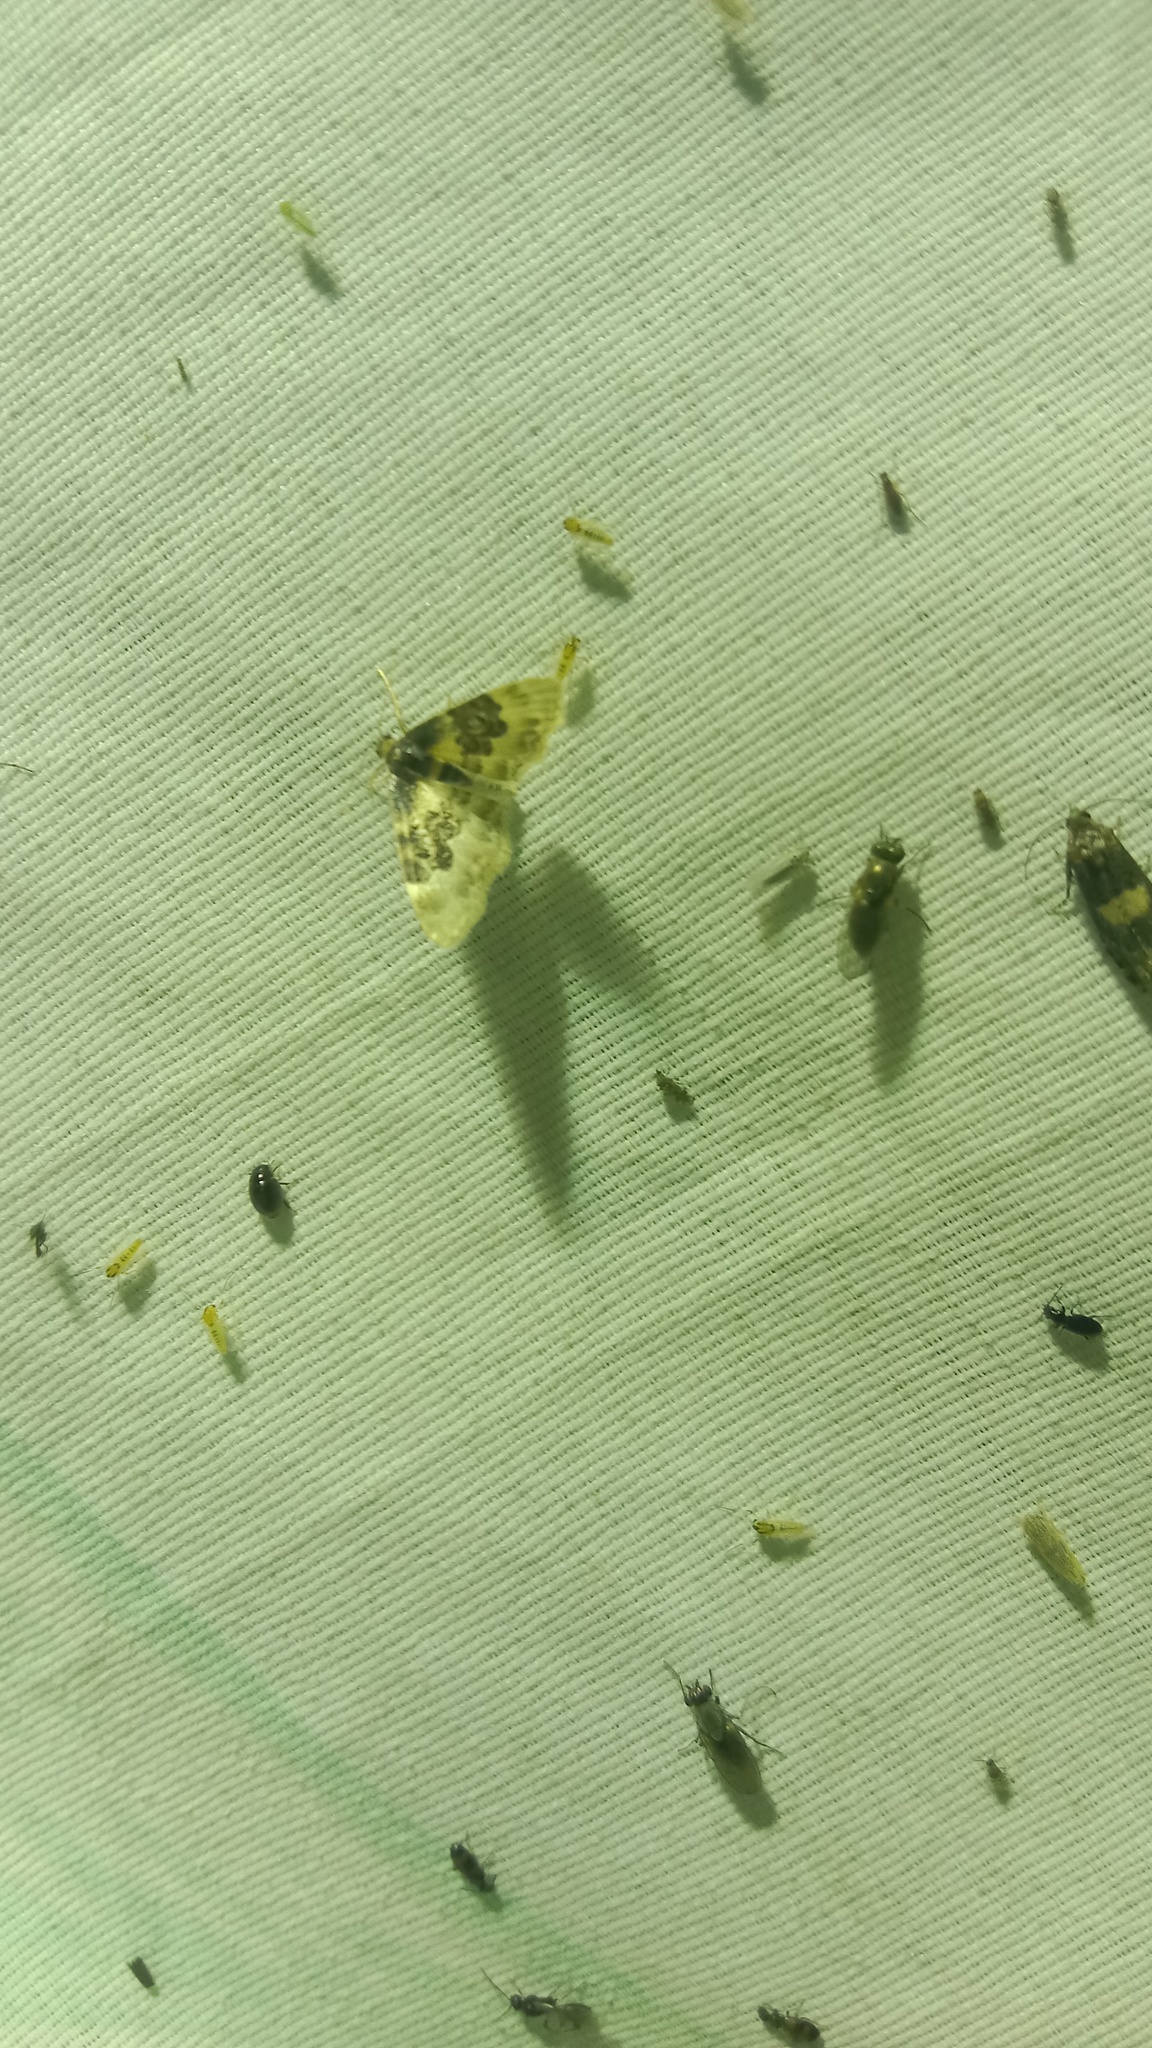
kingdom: Animalia
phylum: Arthropoda
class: Insecta
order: Lepidoptera
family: Geometridae
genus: Idaea
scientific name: Idaea rusticata
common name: Least carpet
